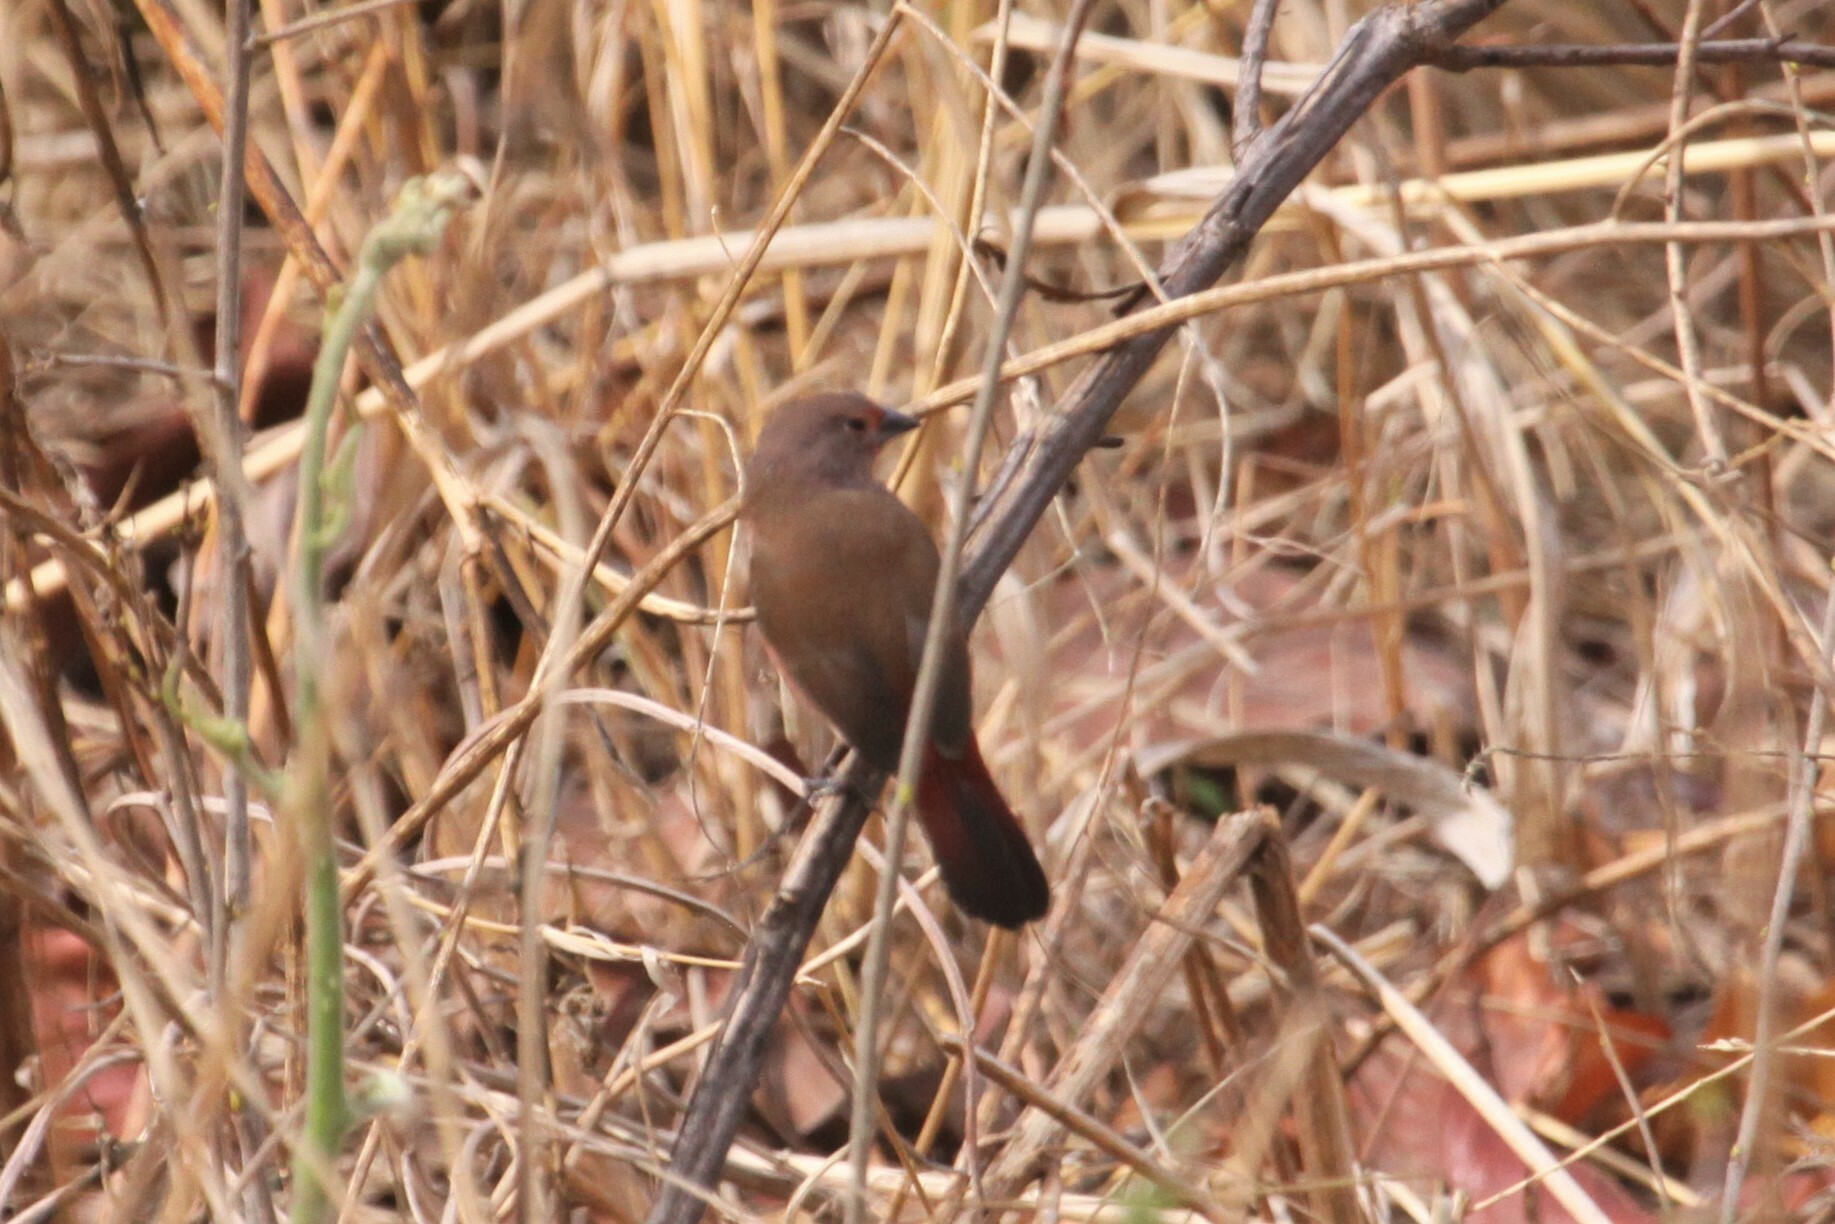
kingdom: Animalia
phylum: Chordata
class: Aves
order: Passeriformes
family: Estrildidae
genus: Lagonosticta
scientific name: Lagonosticta rhodopareia
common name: Jameson's firefinch
